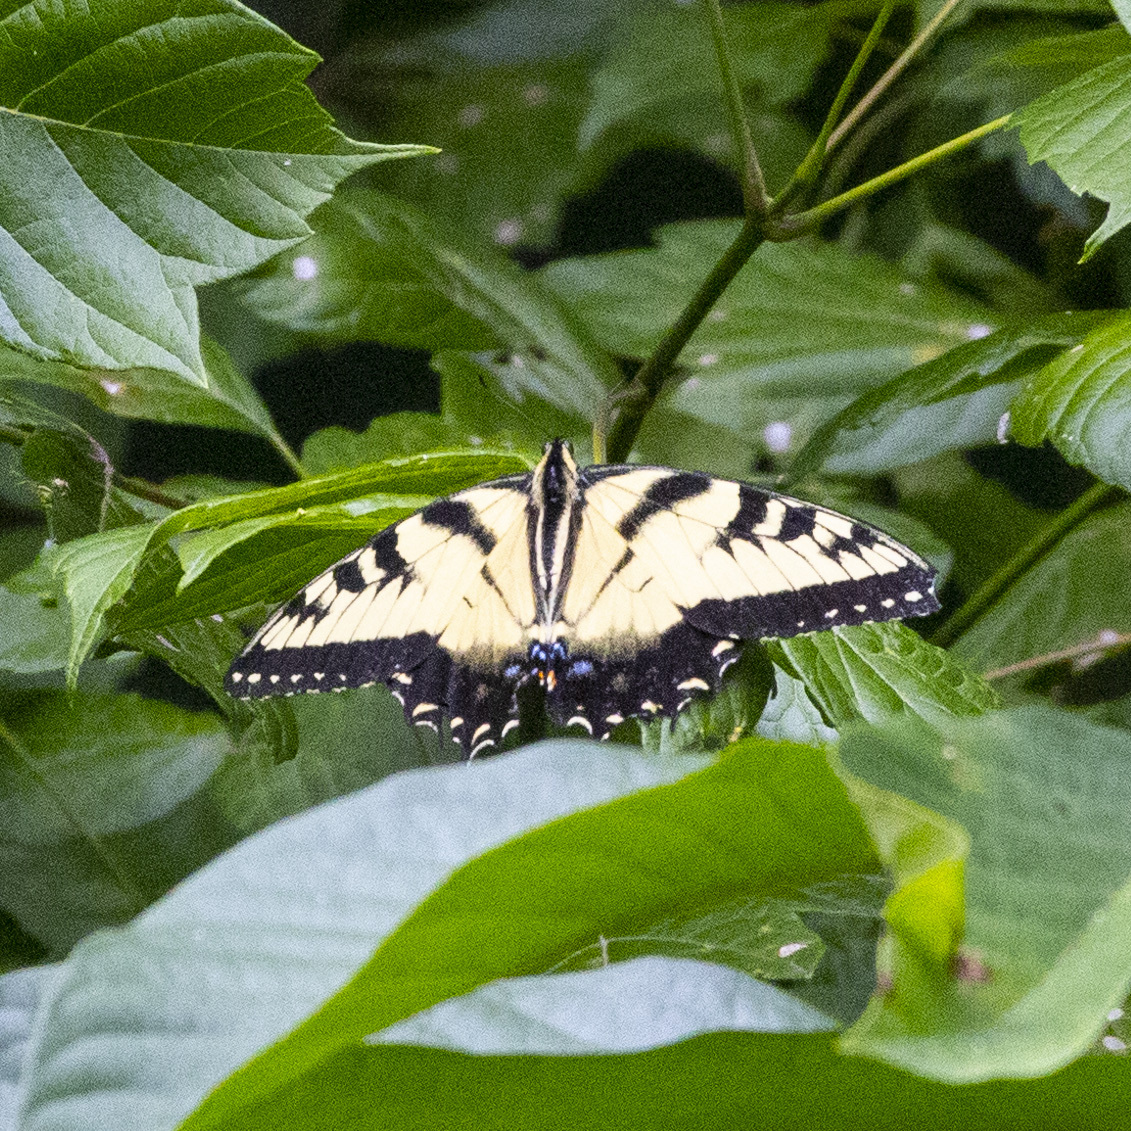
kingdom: Animalia
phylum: Arthropoda
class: Insecta
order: Lepidoptera
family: Papilionidae
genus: Papilio
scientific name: Papilio glaucus
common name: Tiger swallowtail
